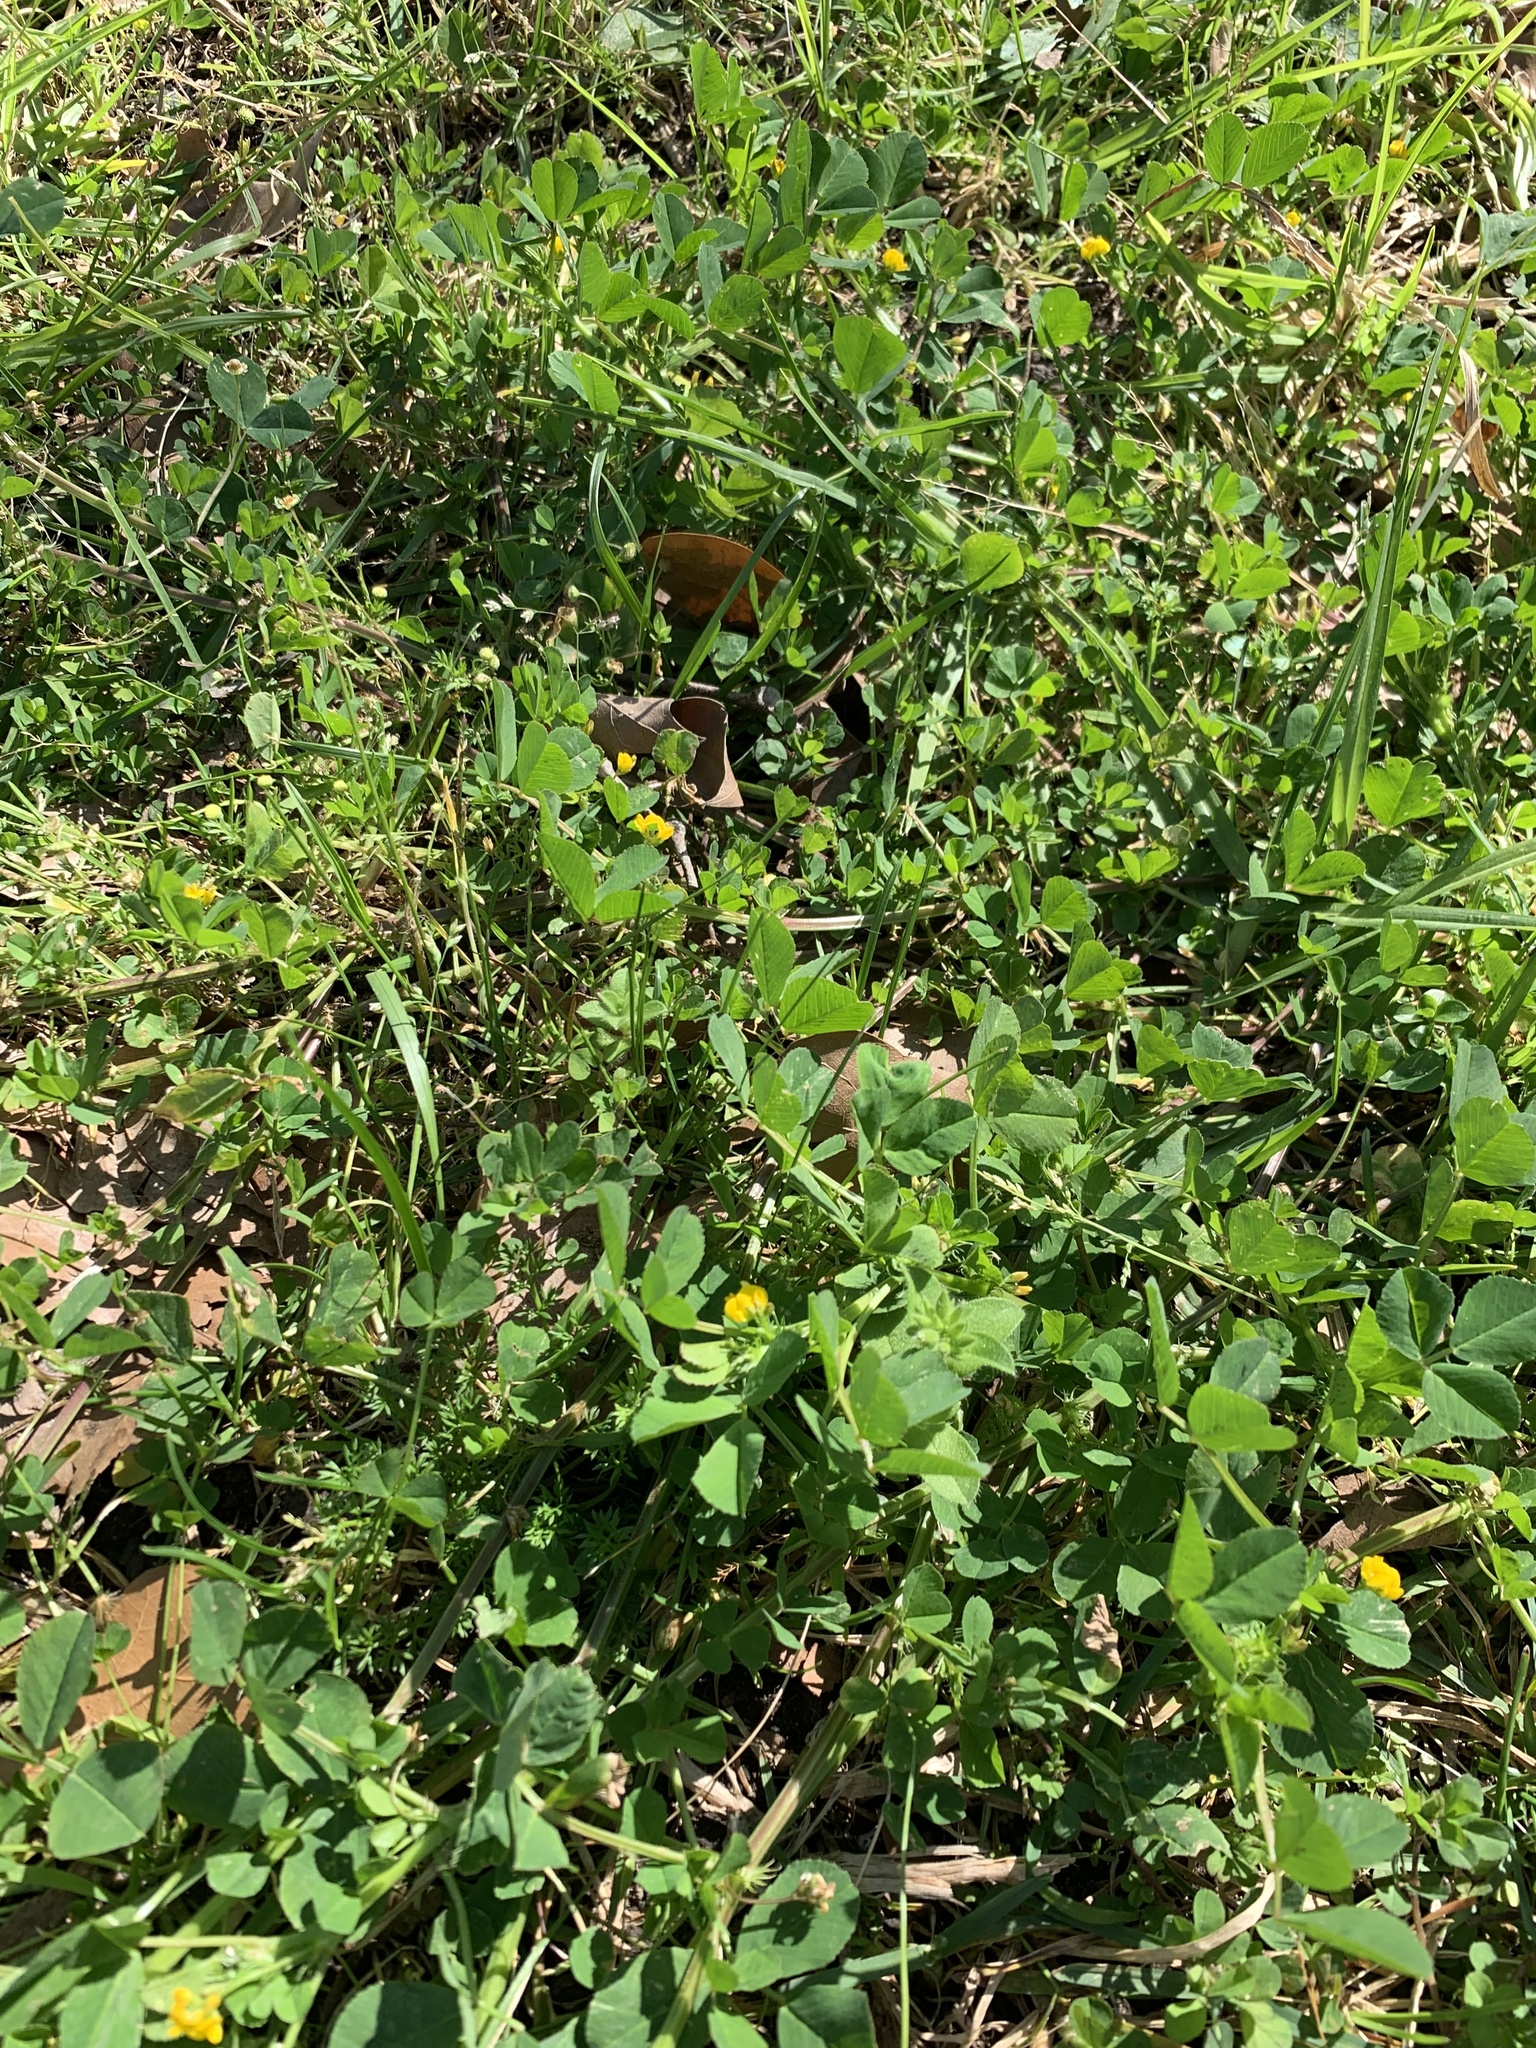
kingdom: Plantae
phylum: Tracheophyta
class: Magnoliopsida
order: Fabales
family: Fabaceae
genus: Medicago
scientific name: Medicago polymorpha
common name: Burclover
